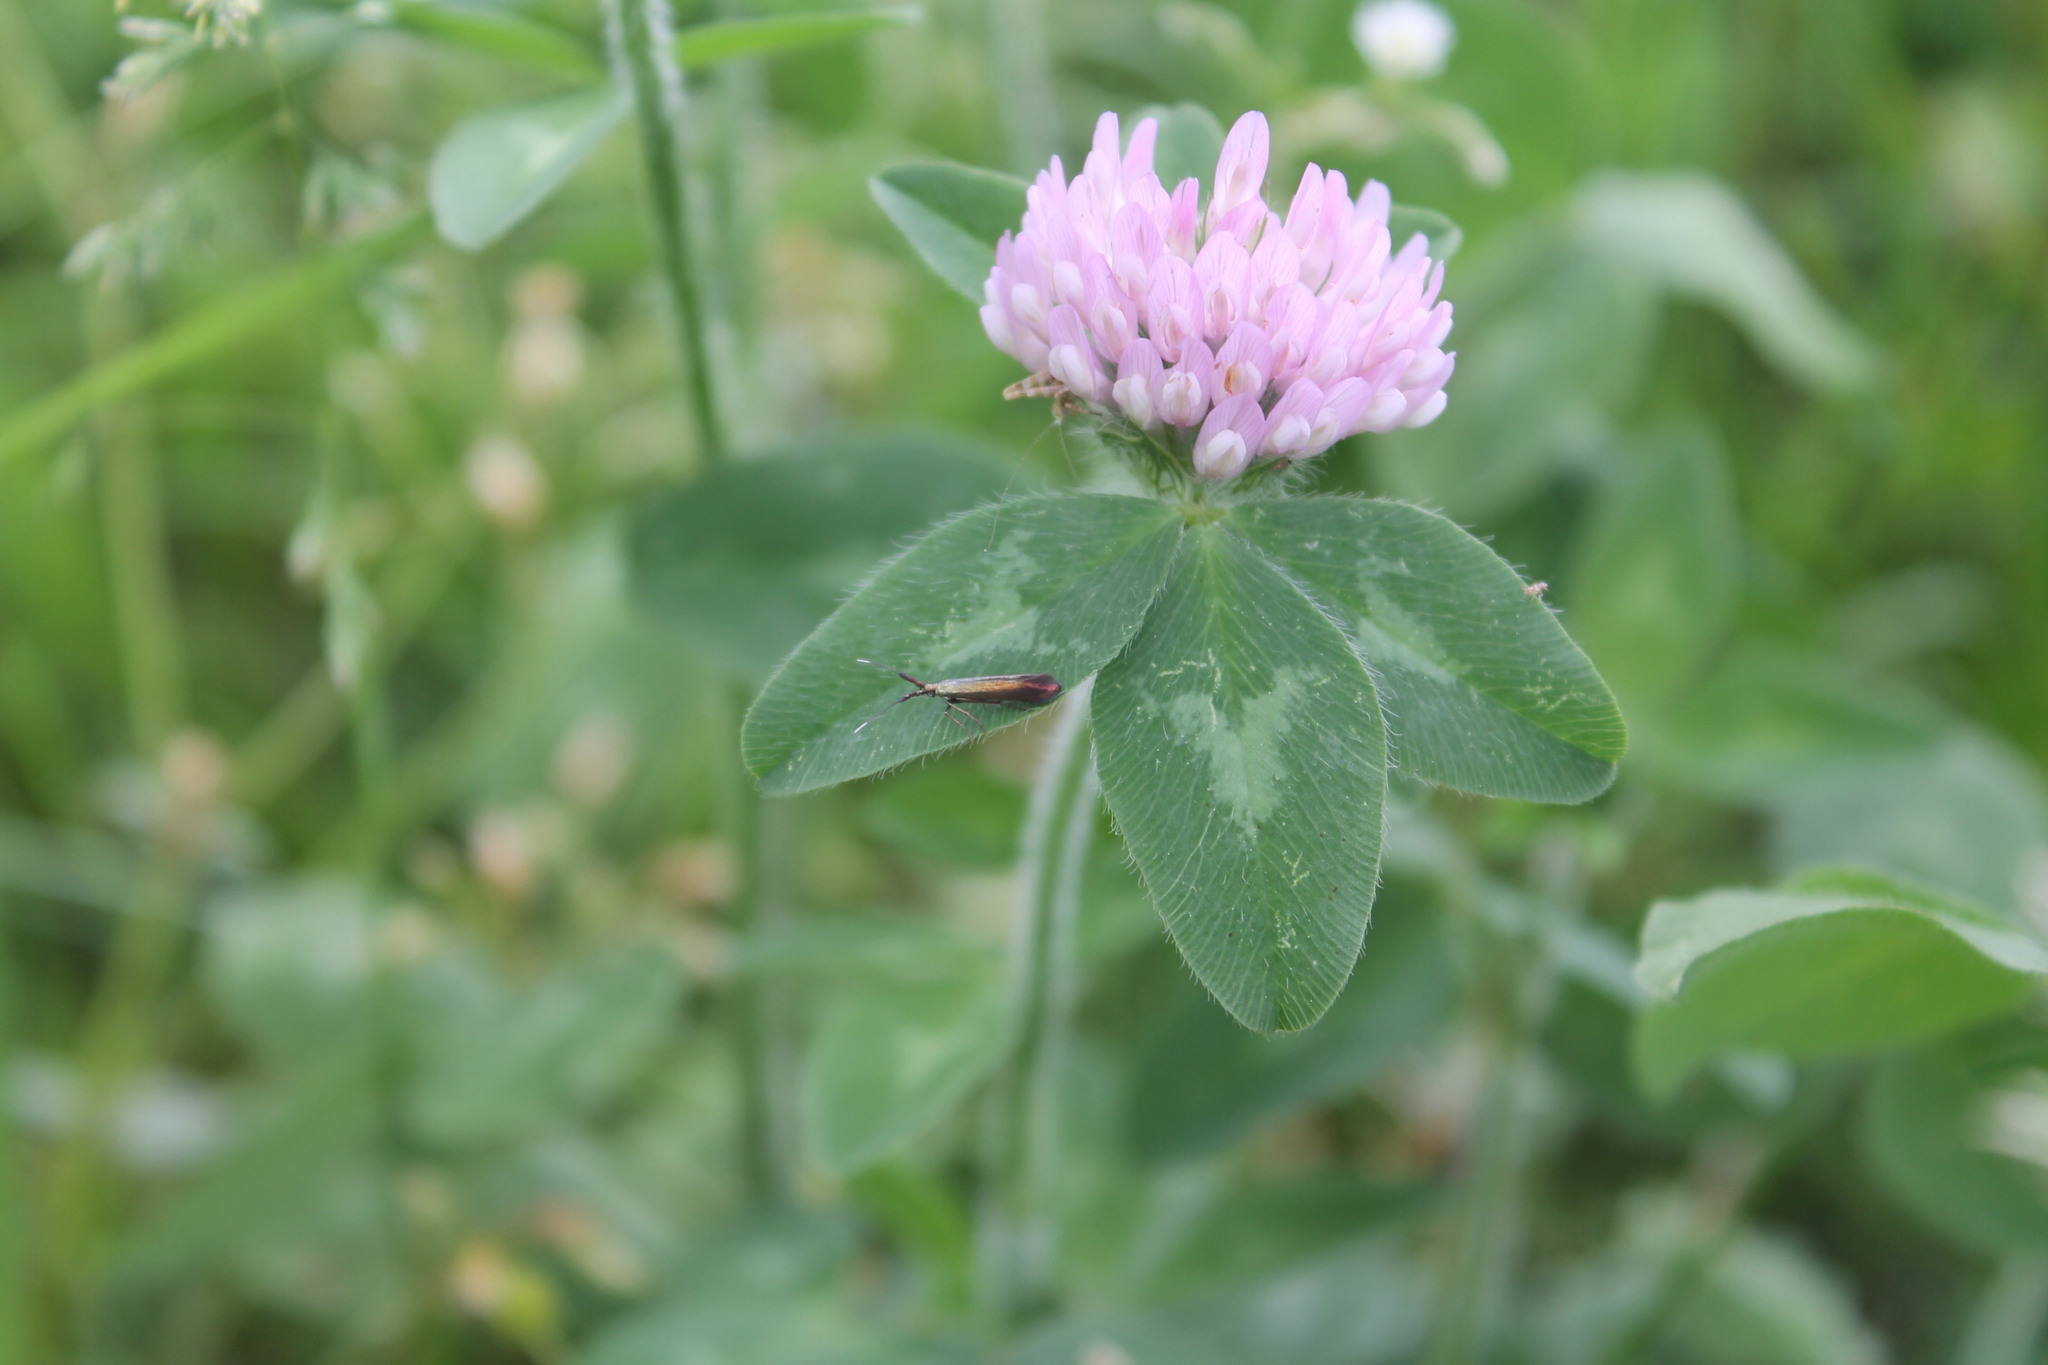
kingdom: Animalia
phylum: Arthropoda
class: Insecta
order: Lepidoptera
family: Coleophoridae
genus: Coleophora
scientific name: Coleophora deauratella
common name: Red-clover case-bearer
